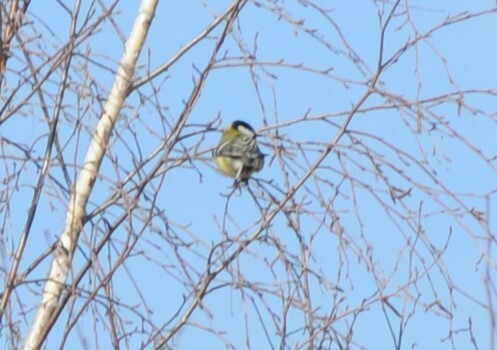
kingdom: Animalia
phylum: Chordata
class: Aves
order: Passeriformes
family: Paridae
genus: Parus
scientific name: Parus major
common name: Great tit
